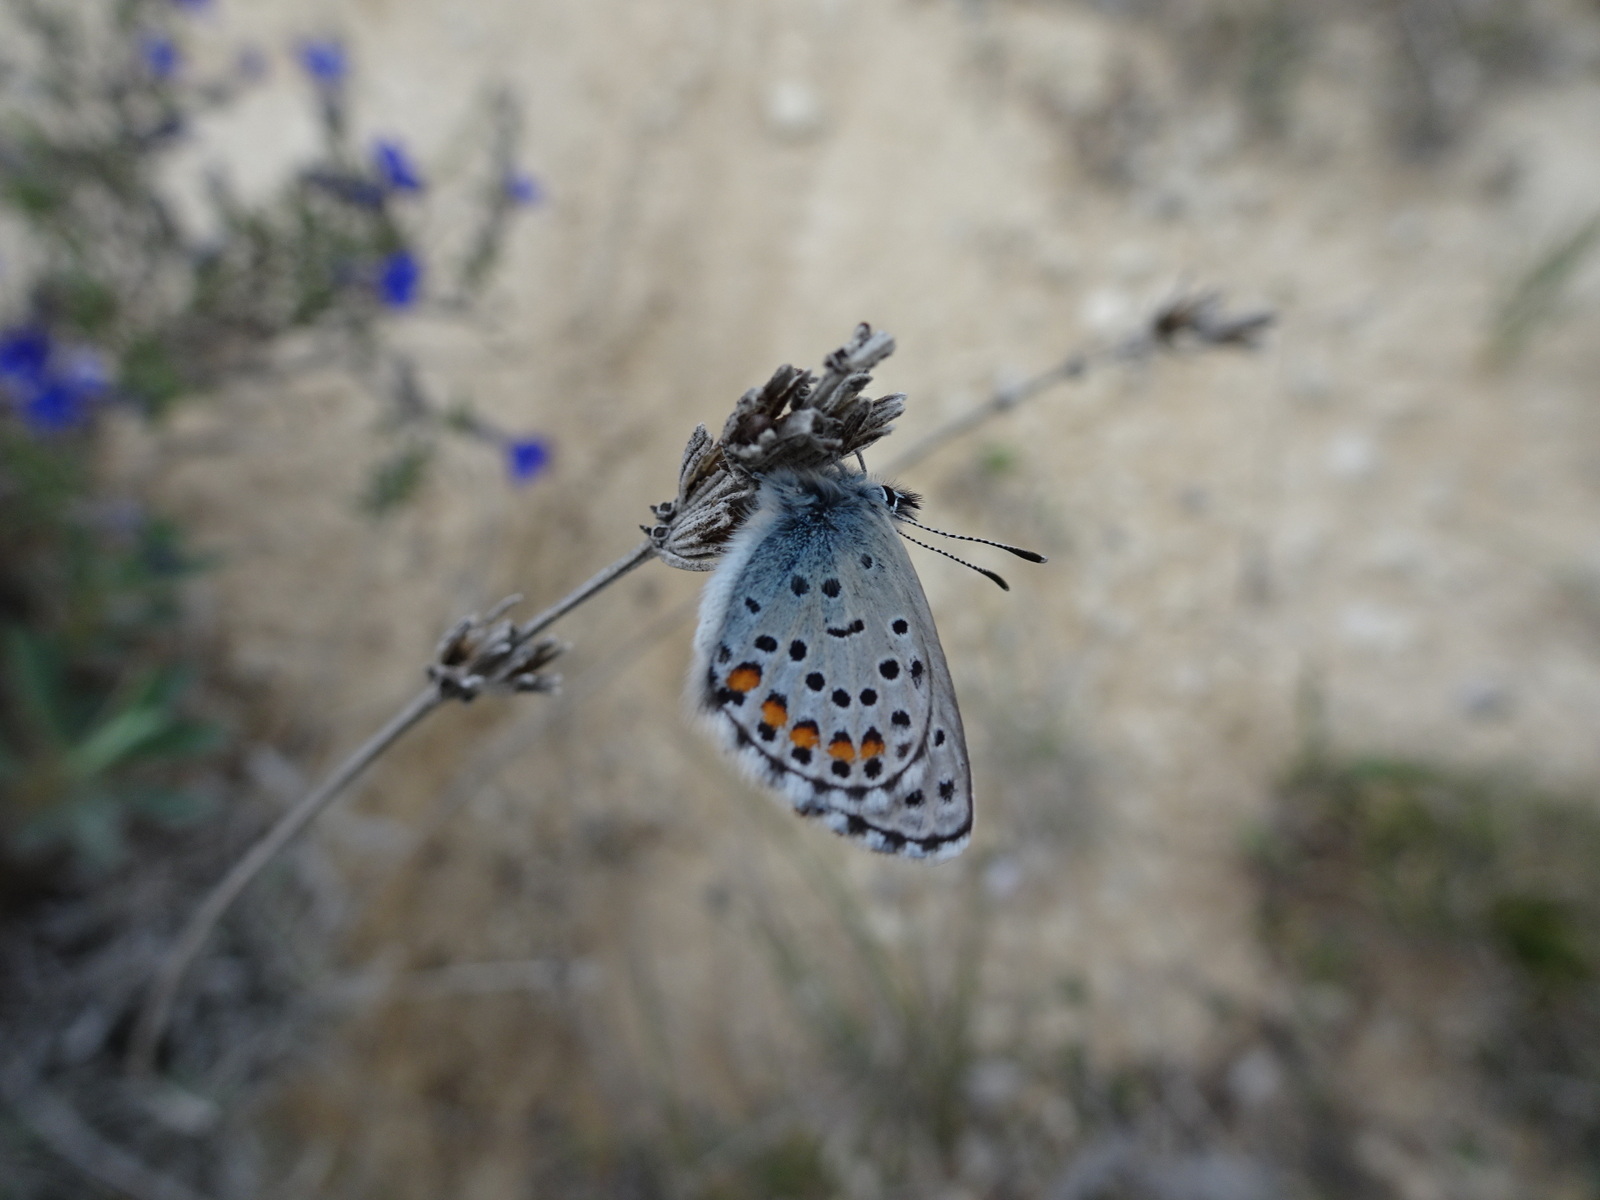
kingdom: Animalia
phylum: Arthropoda
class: Insecta
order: Lepidoptera
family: Lycaenidae
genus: Pseudophilotes
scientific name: Pseudophilotes baton
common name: Baton blue
